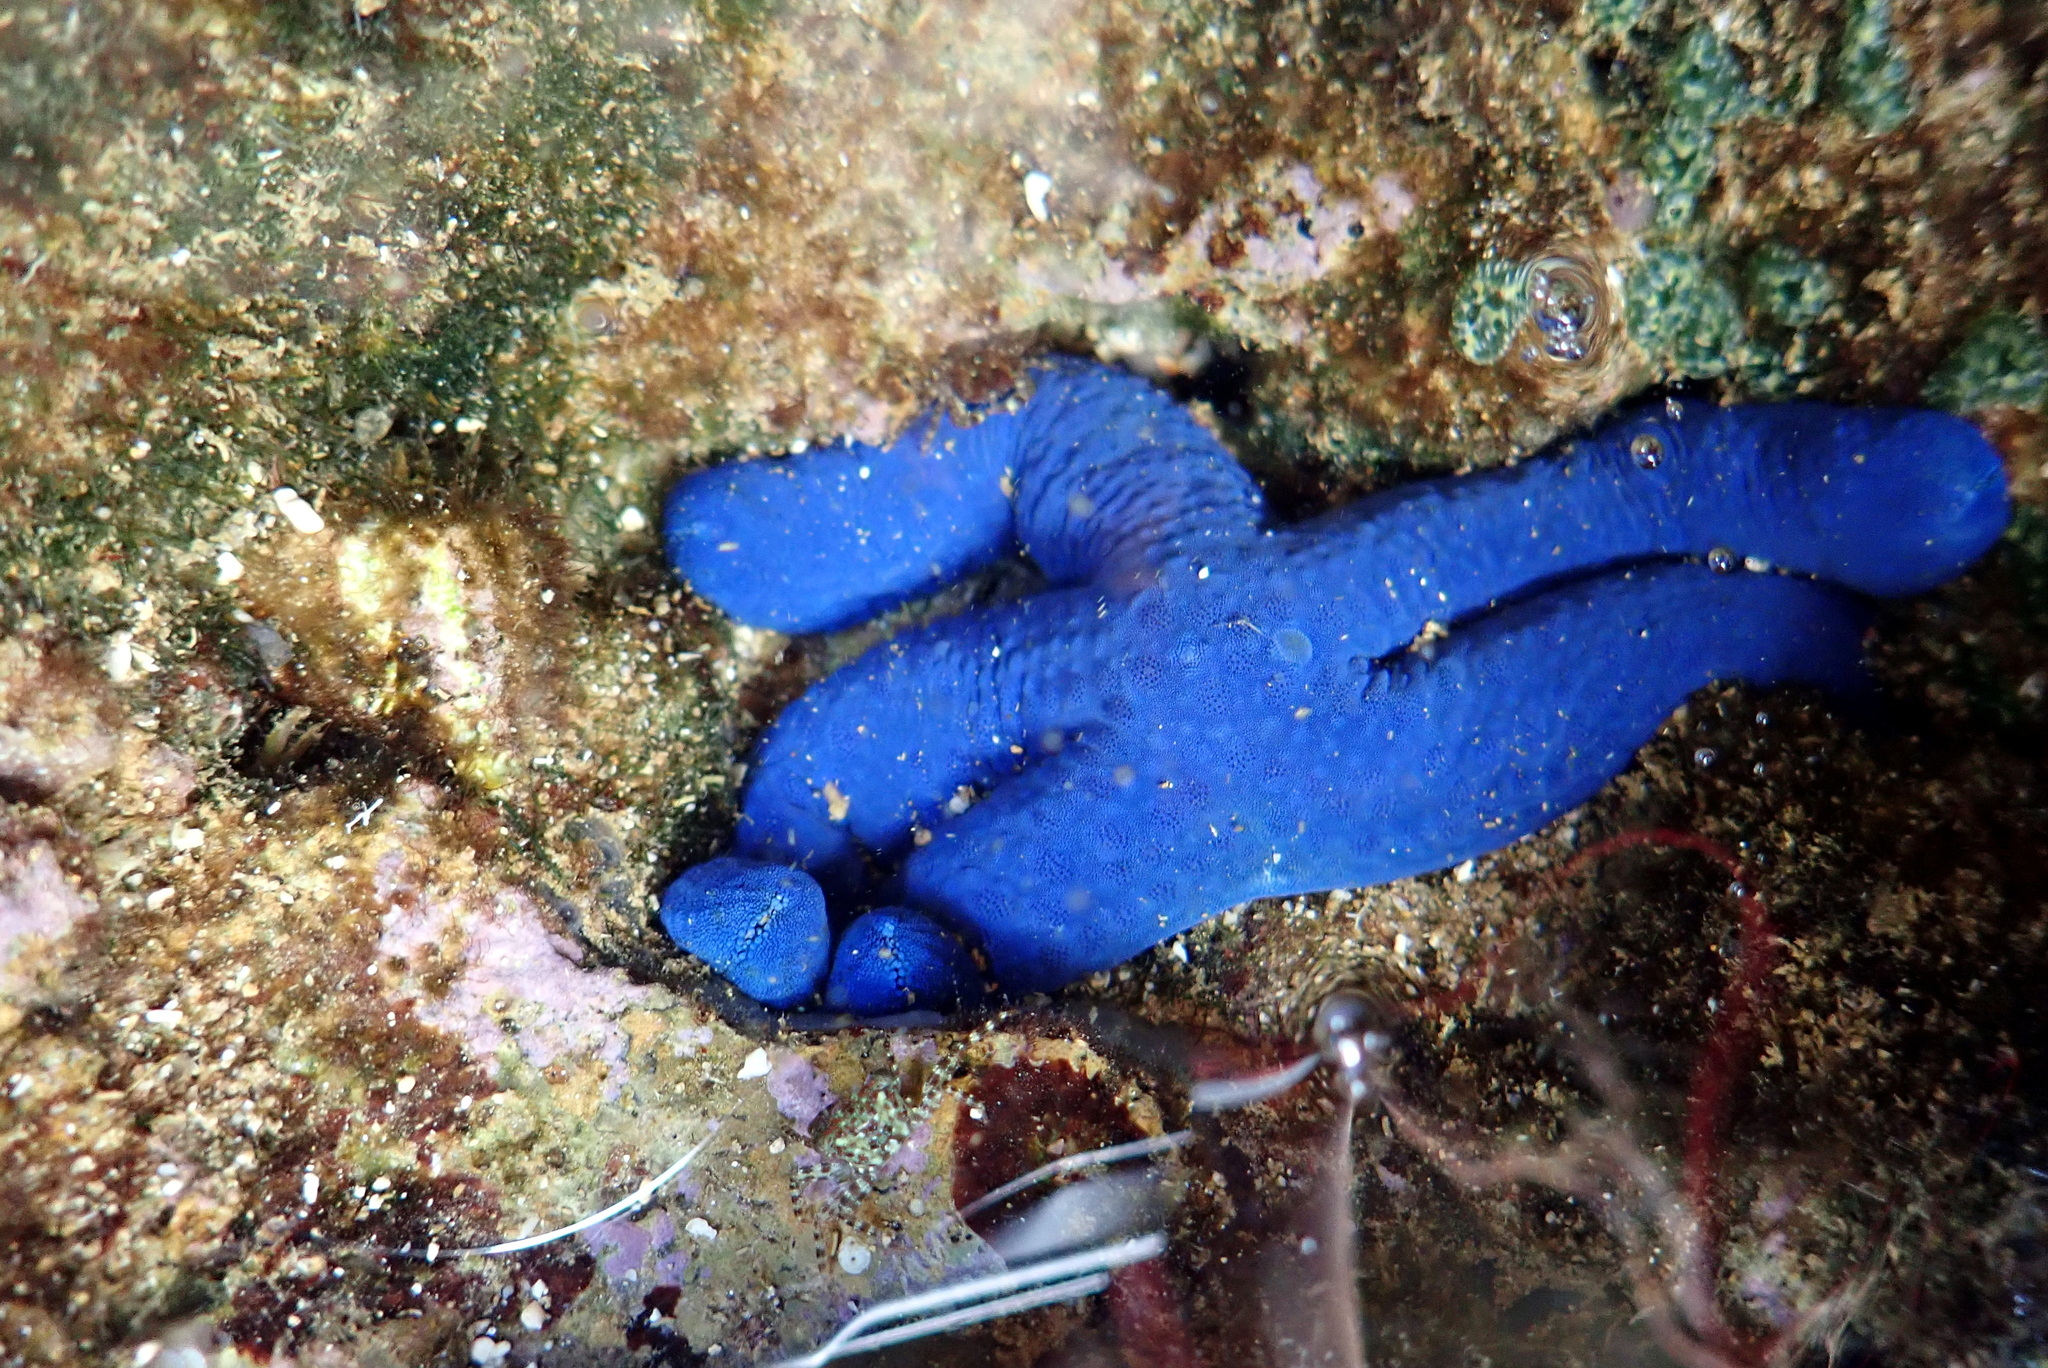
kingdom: Animalia
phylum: Echinodermata
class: Asteroidea
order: Valvatida
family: Ophidiasteridae
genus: Linckia
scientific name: Linckia laevigata
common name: Azure sea star
